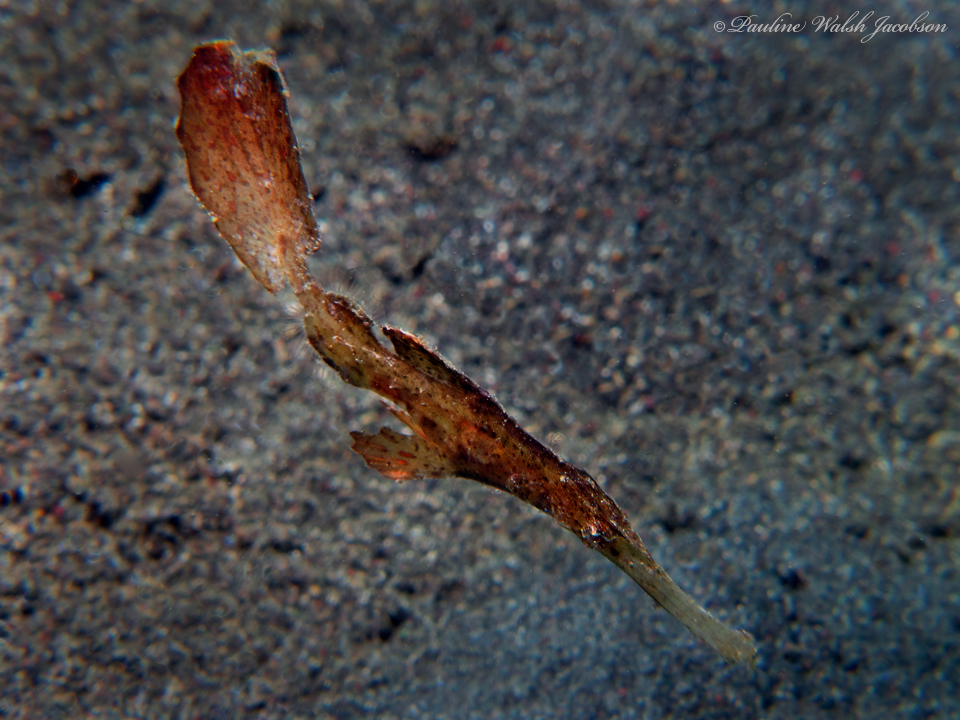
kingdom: Animalia
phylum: Chordata
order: Syngnathiformes
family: Solenostomidae
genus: Solenostomus
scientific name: Solenostomus cyanopterus
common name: Blue-finned ghost pipefish
